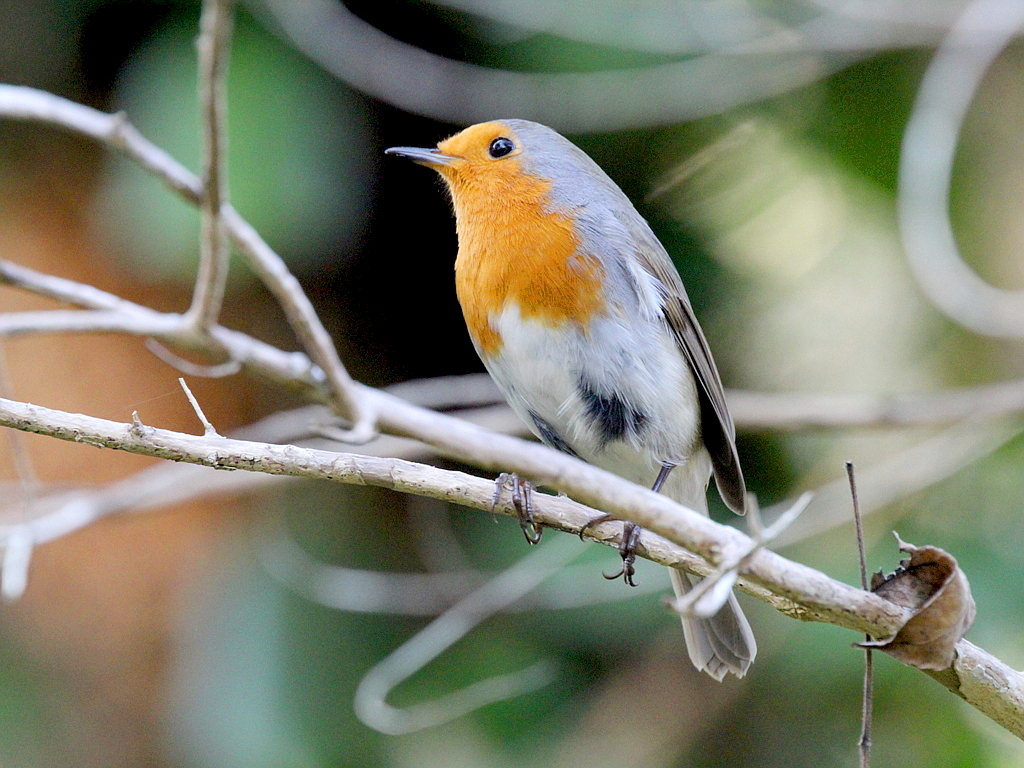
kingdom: Animalia
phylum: Chordata
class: Aves
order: Passeriformes
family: Muscicapidae
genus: Erithacus
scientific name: Erithacus rubecula
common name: European robin
